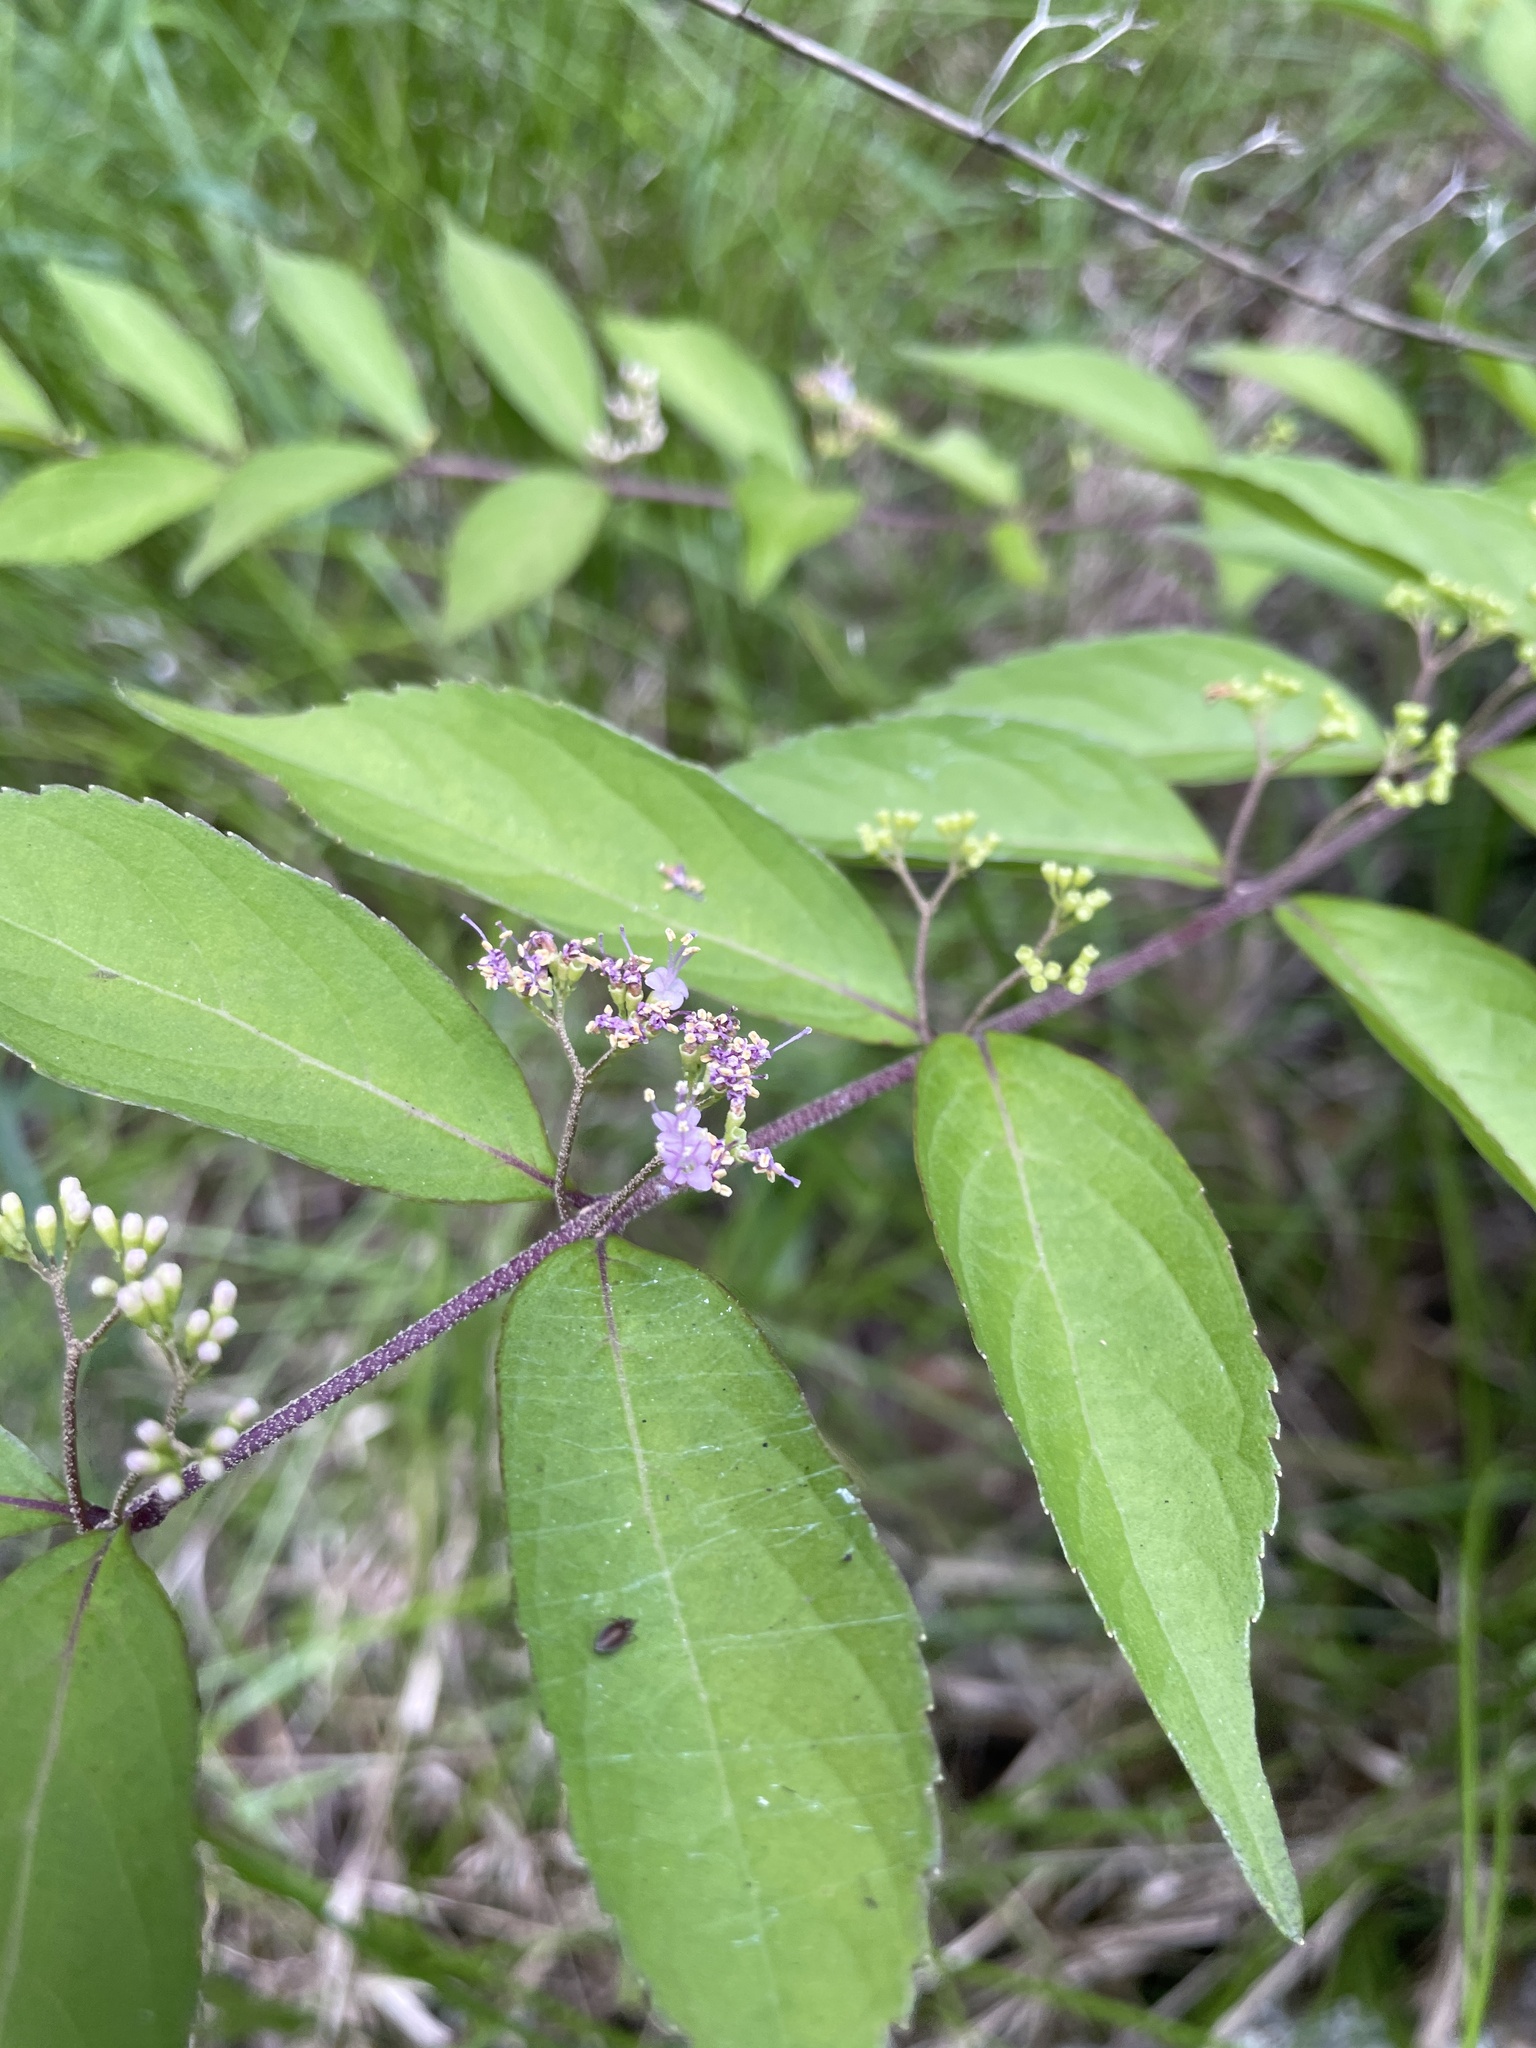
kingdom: Plantae
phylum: Tracheophyta
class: Magnoliopsida
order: Lamiales
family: Lamiaceae
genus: Callicarpa
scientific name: Callicarpa dichotoma
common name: Purple beauty-berry
